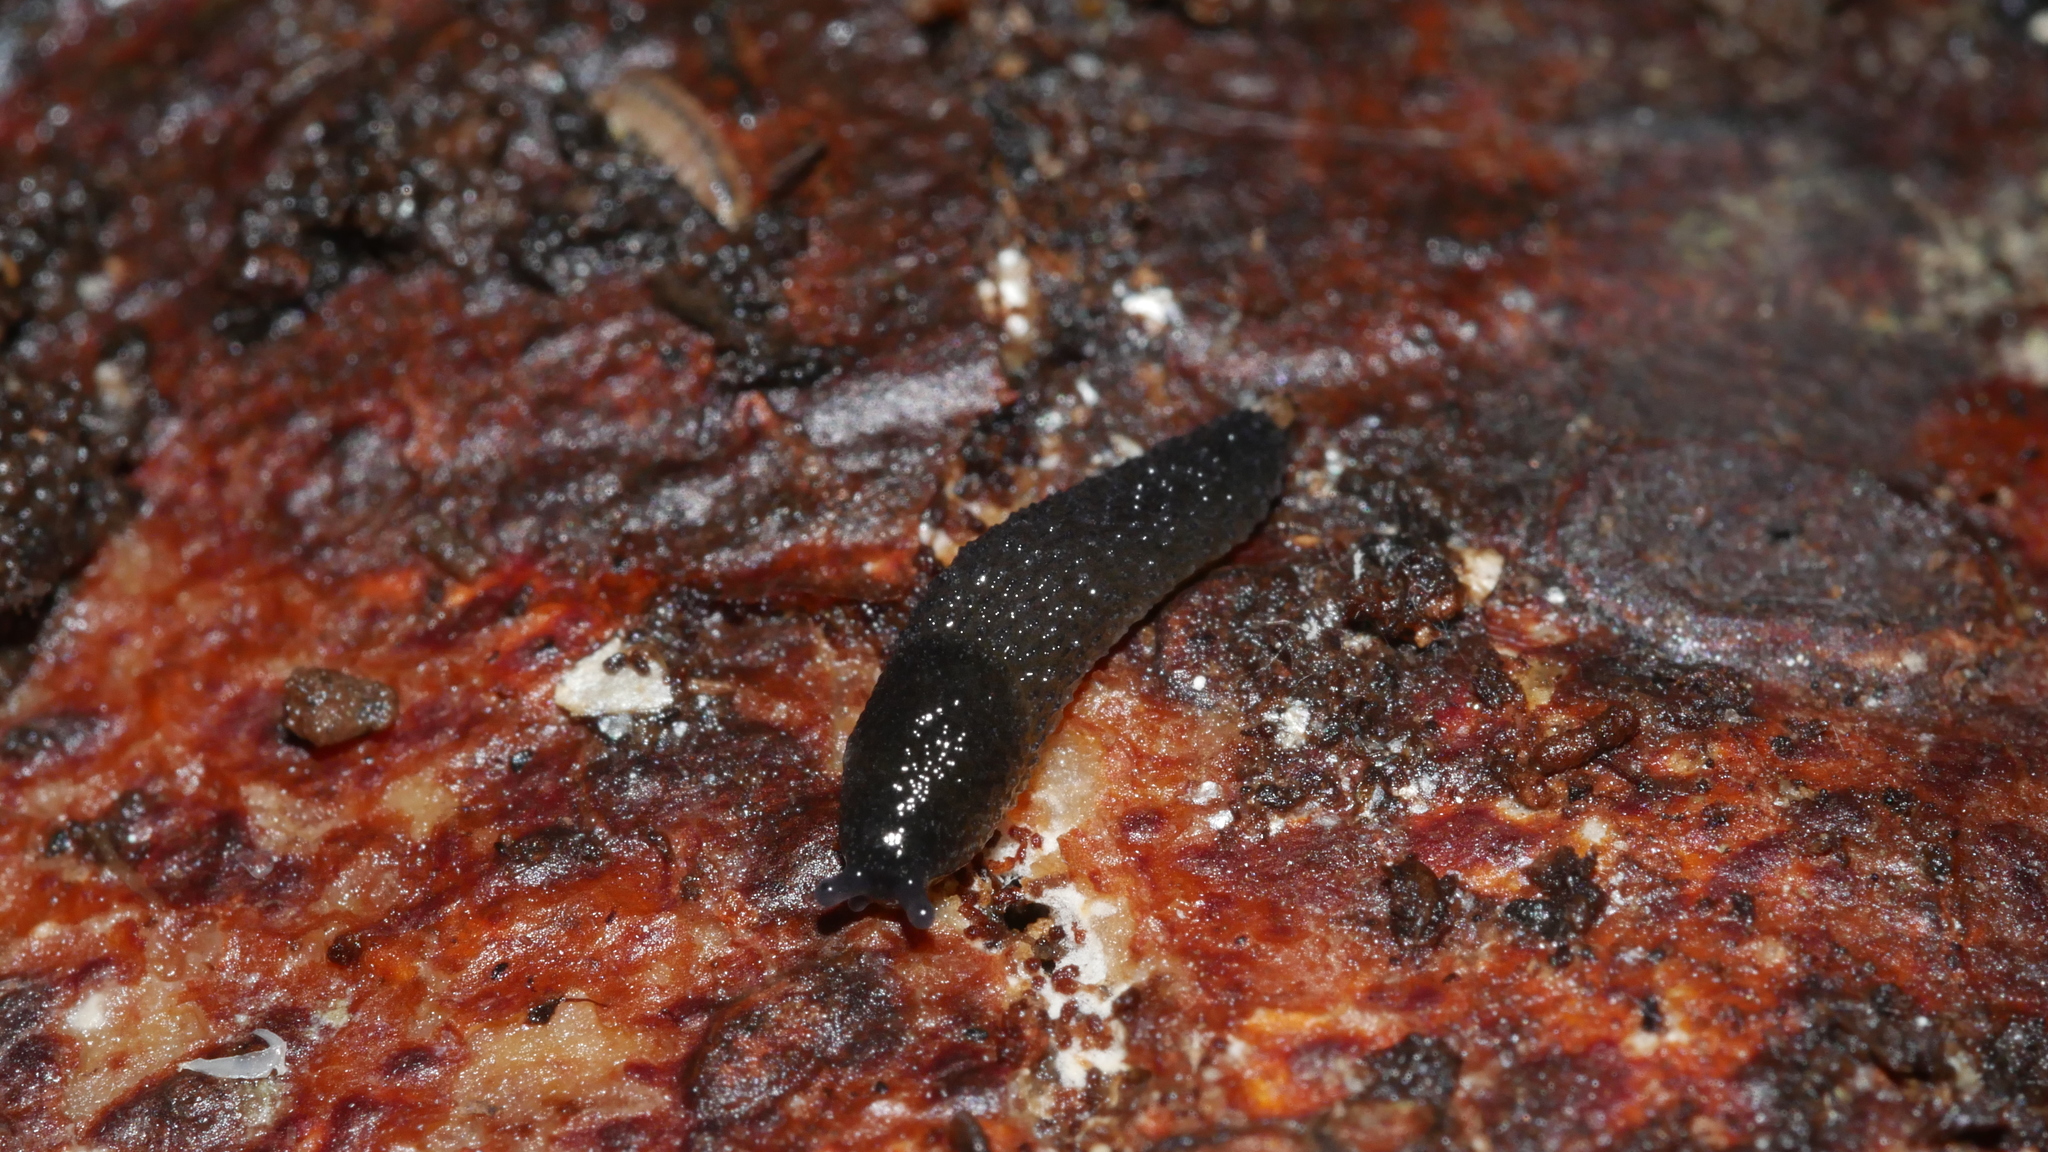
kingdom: Animalia
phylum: Mollusca
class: Gastropoda
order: Stylommatophora
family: Arionidae
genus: Arion
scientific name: Arion intermedius
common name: Hedgehog slug
